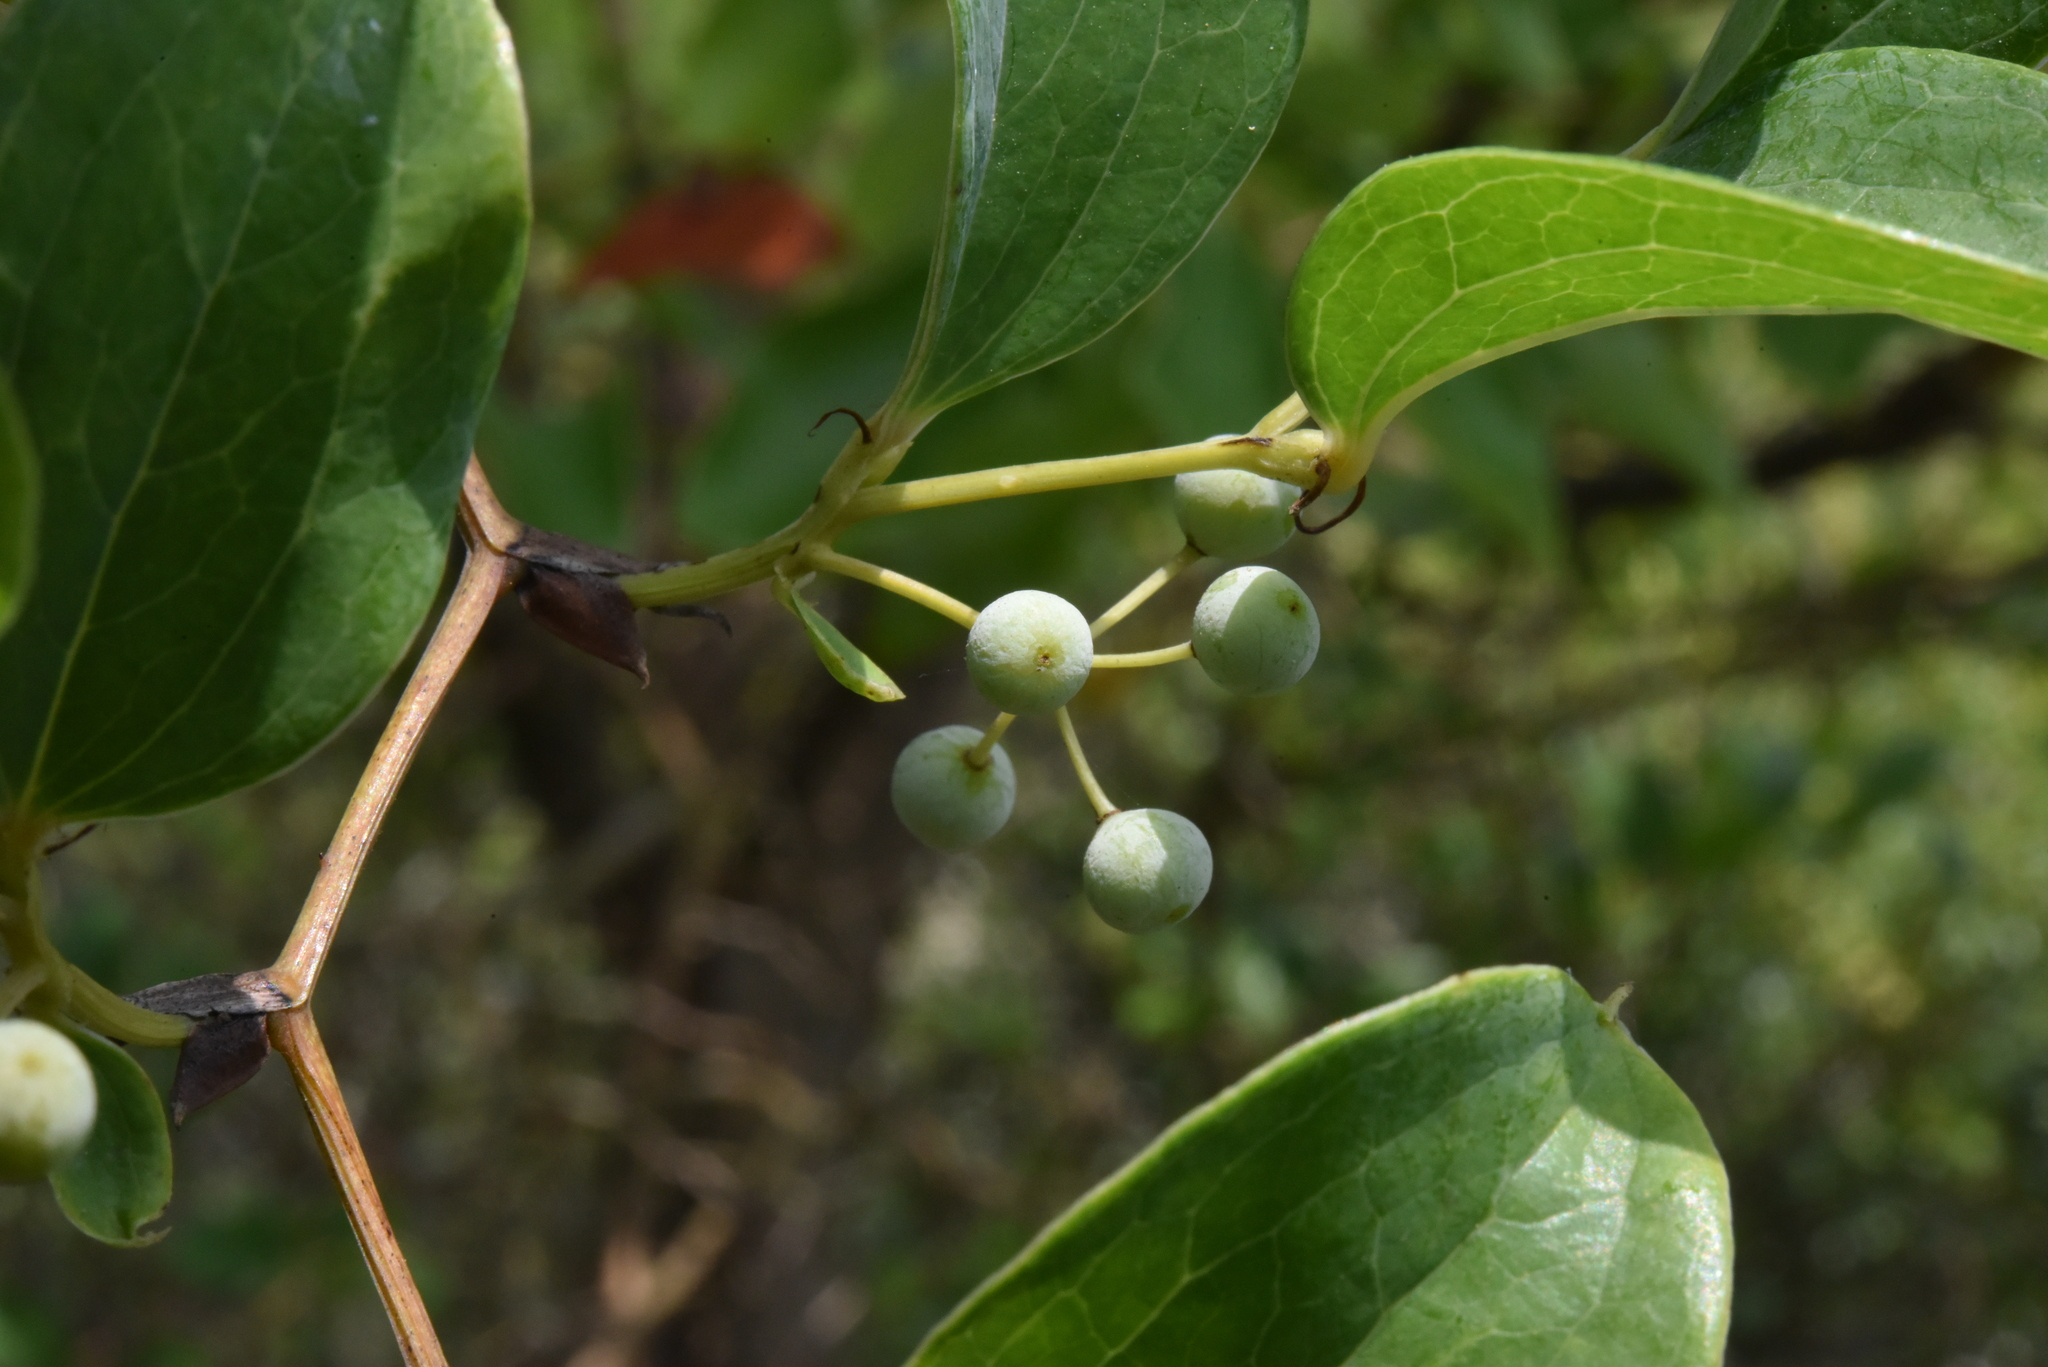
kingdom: Plantae
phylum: Tracheophyta
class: Liliopsida
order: Liliales
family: Smilacaceae
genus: Smilax
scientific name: Smilax china
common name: Chinaroot
